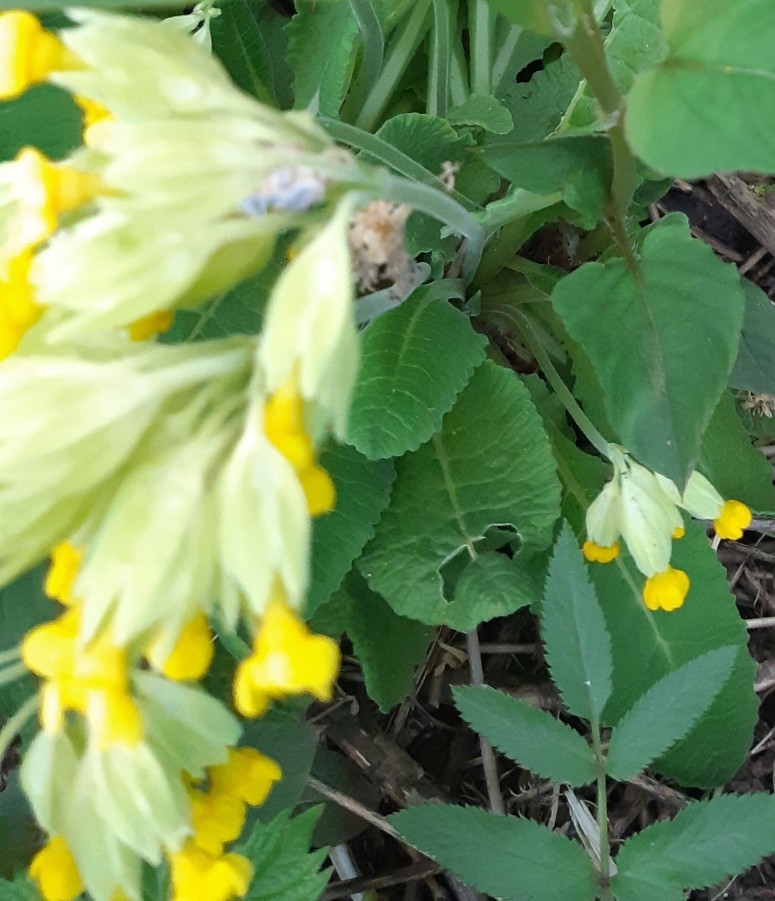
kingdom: Plantae
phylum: Tracheophyta
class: Magnoliopsida
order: Ericales
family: Primulaceae
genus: Primula
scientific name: Primula veris
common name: Cowslip
